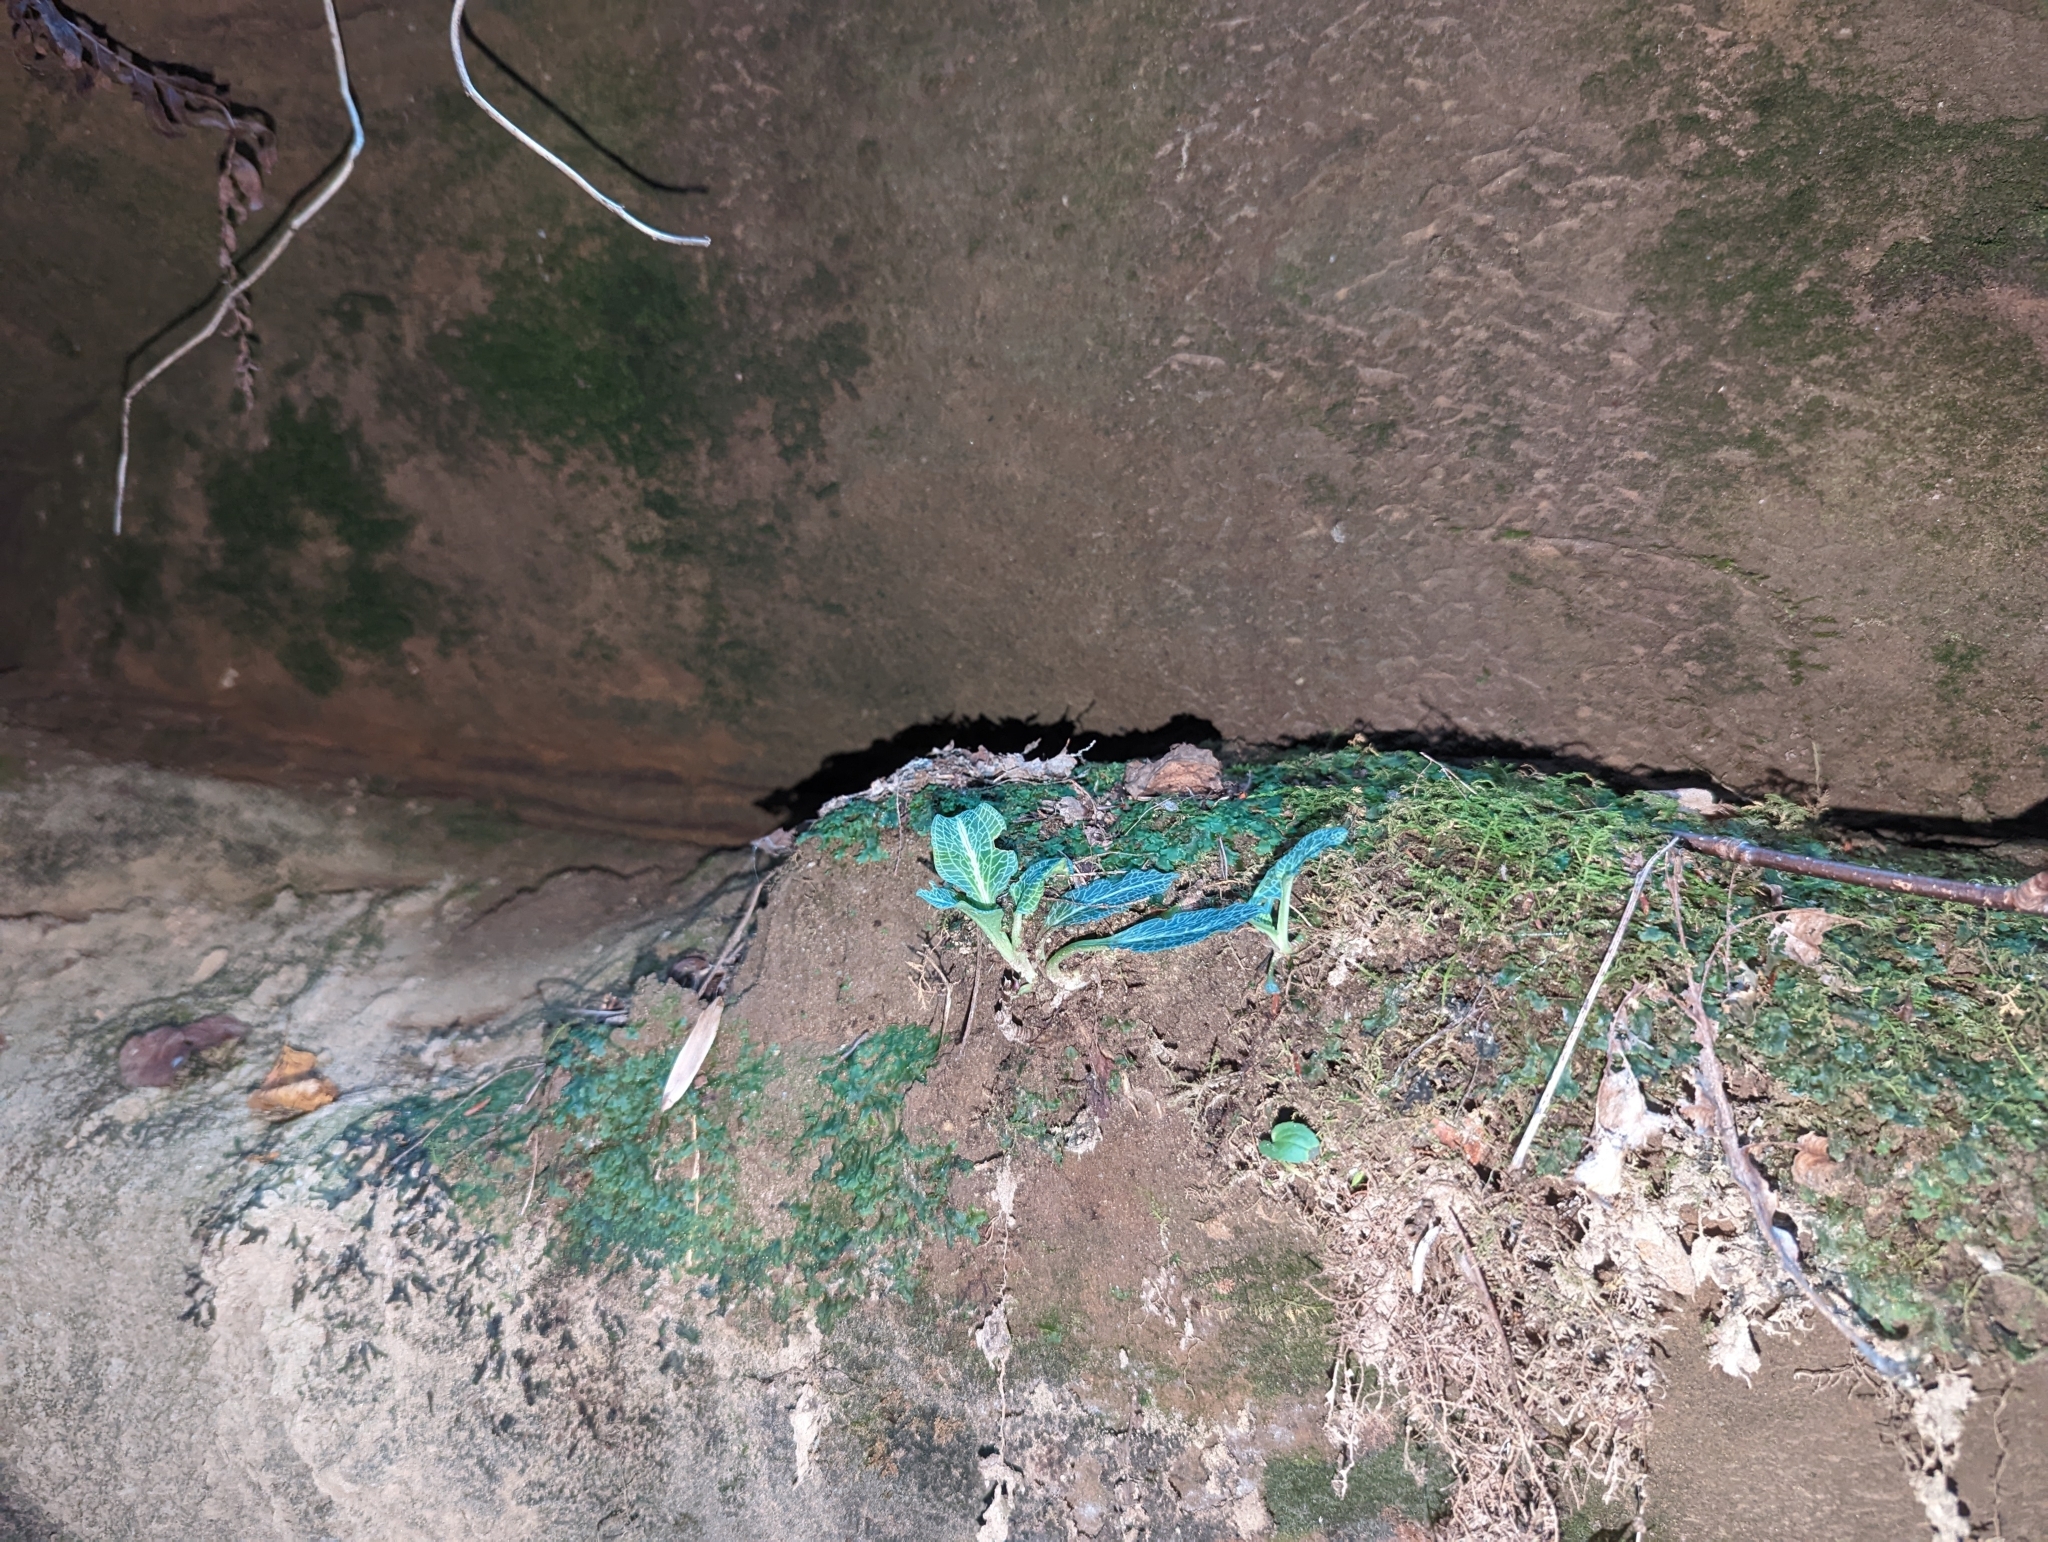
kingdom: Plantae
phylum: Tracheophyta
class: Liliopsida
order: Asparagales
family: Orchidaceae
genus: Goodyera
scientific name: Goodyera pubescens
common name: Downy rattlesnake-plantain
